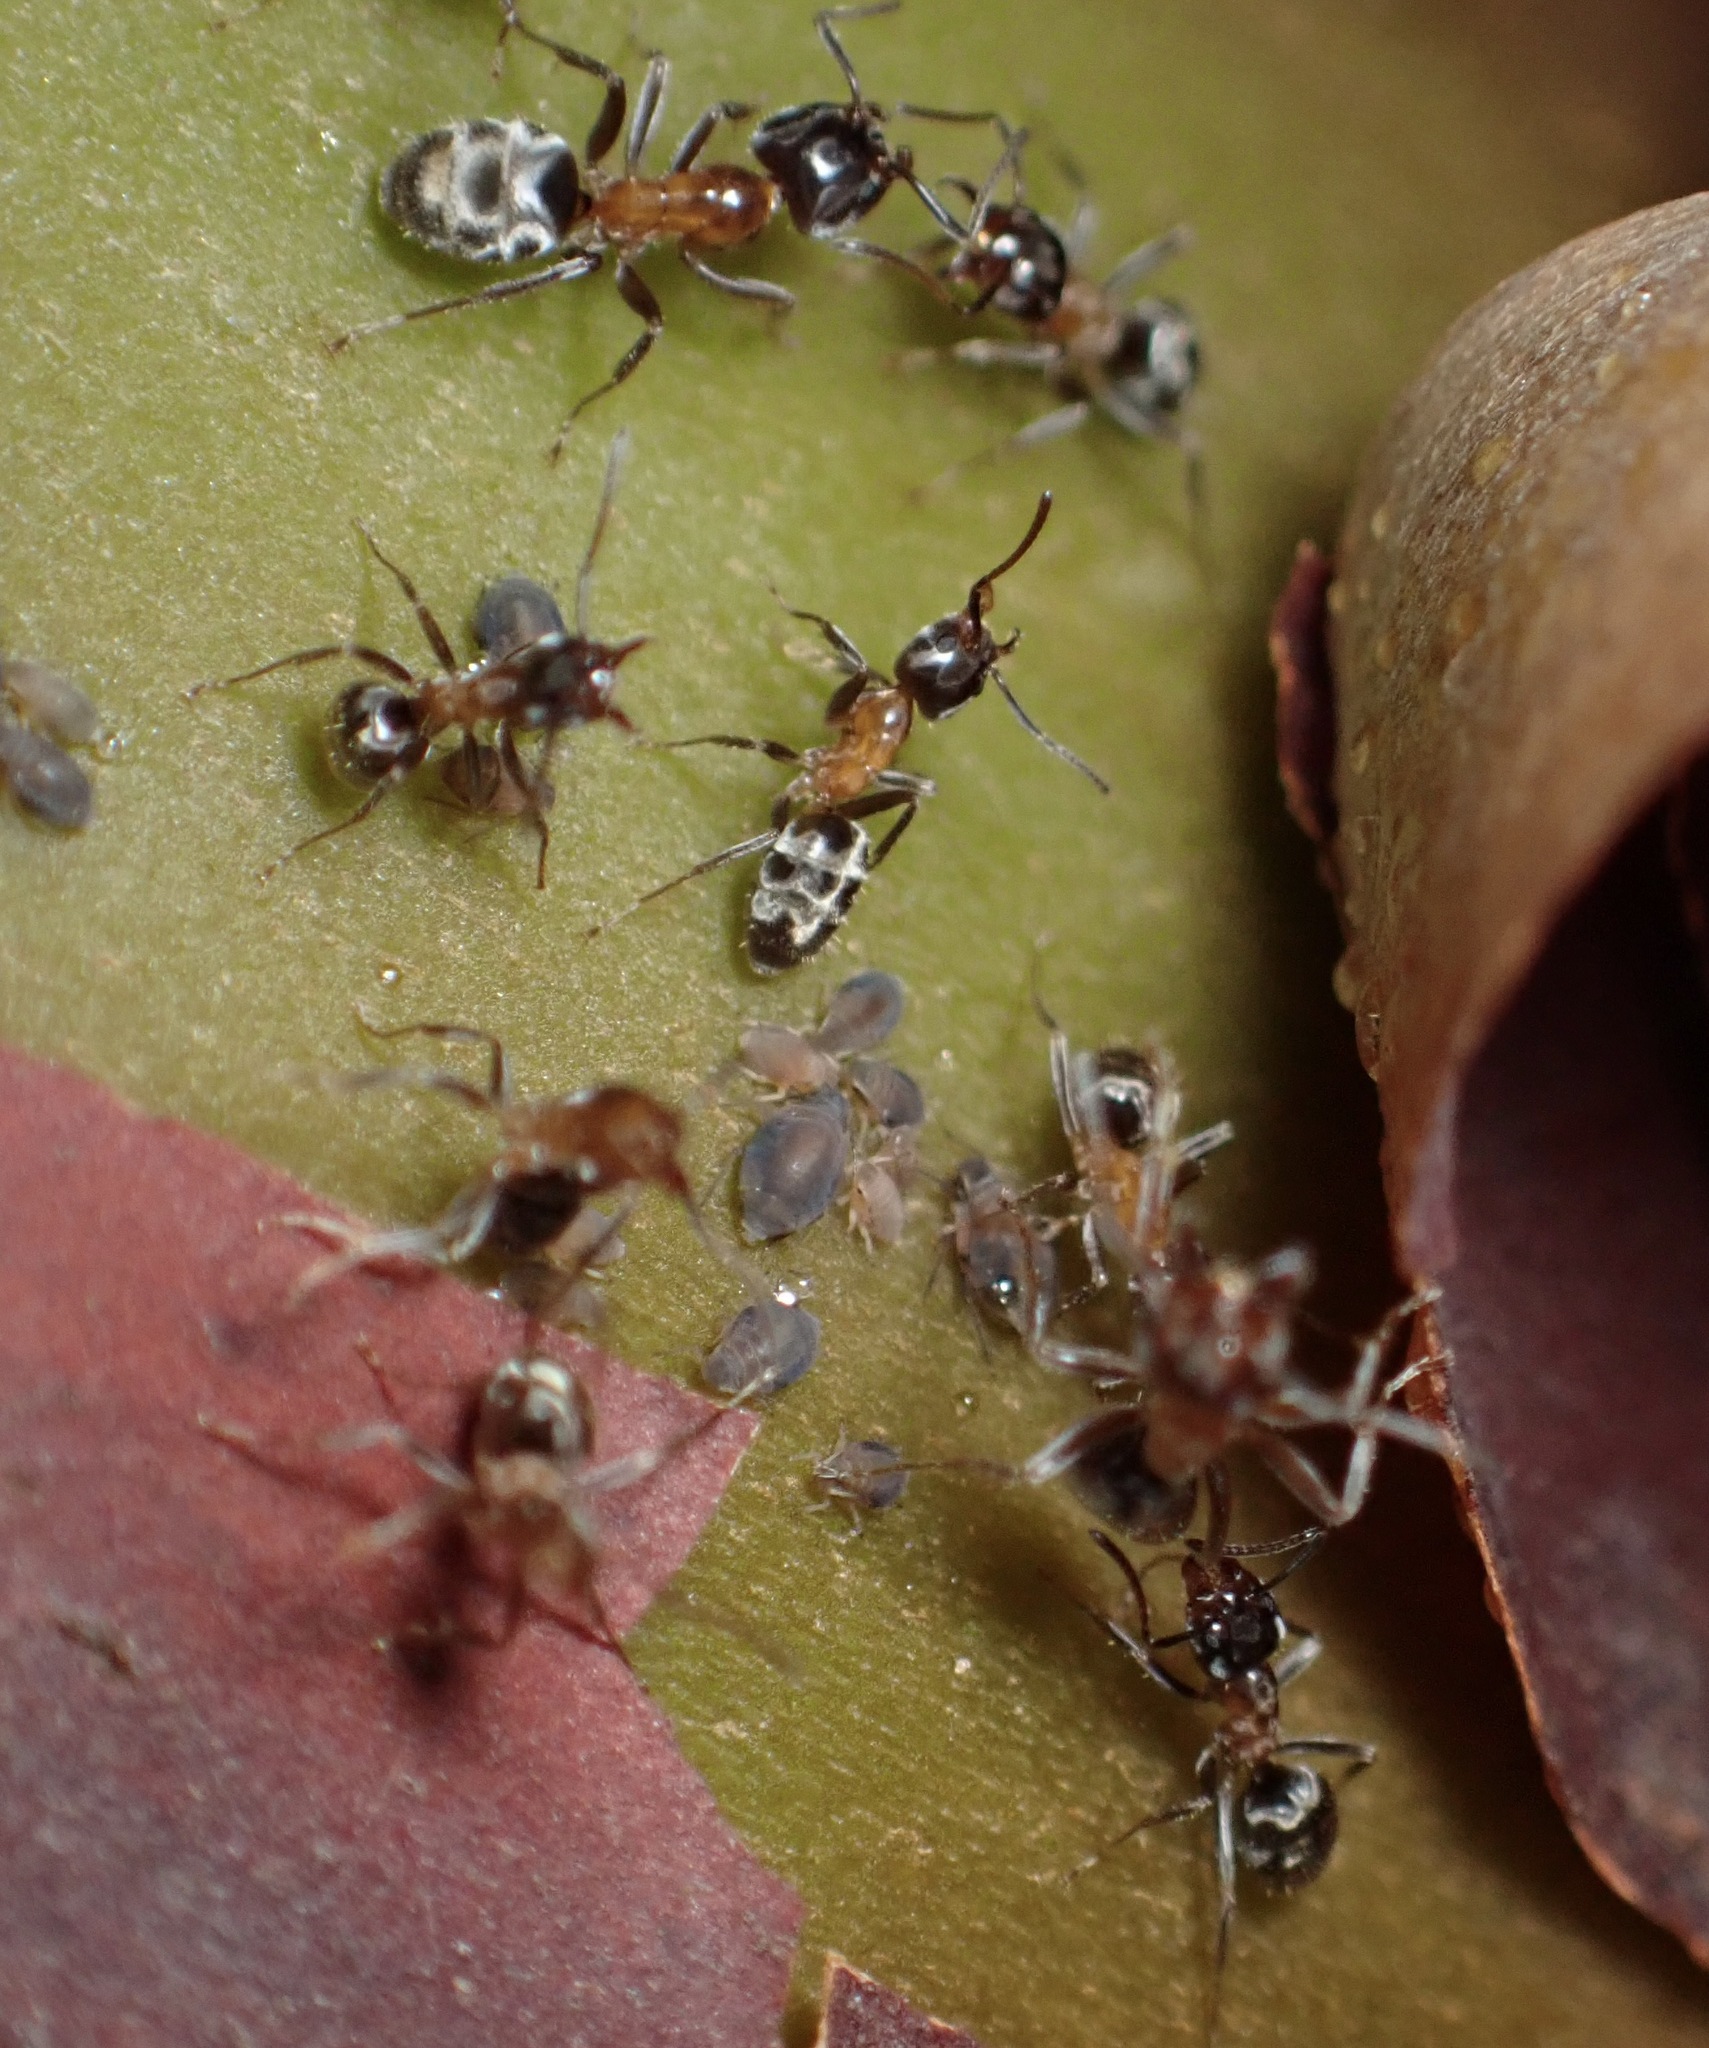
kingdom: Animalia
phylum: Arthropoda
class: Insecta
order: Hymenoptera
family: Formicidae
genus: Liometopum
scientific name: Liometopum occidentale
